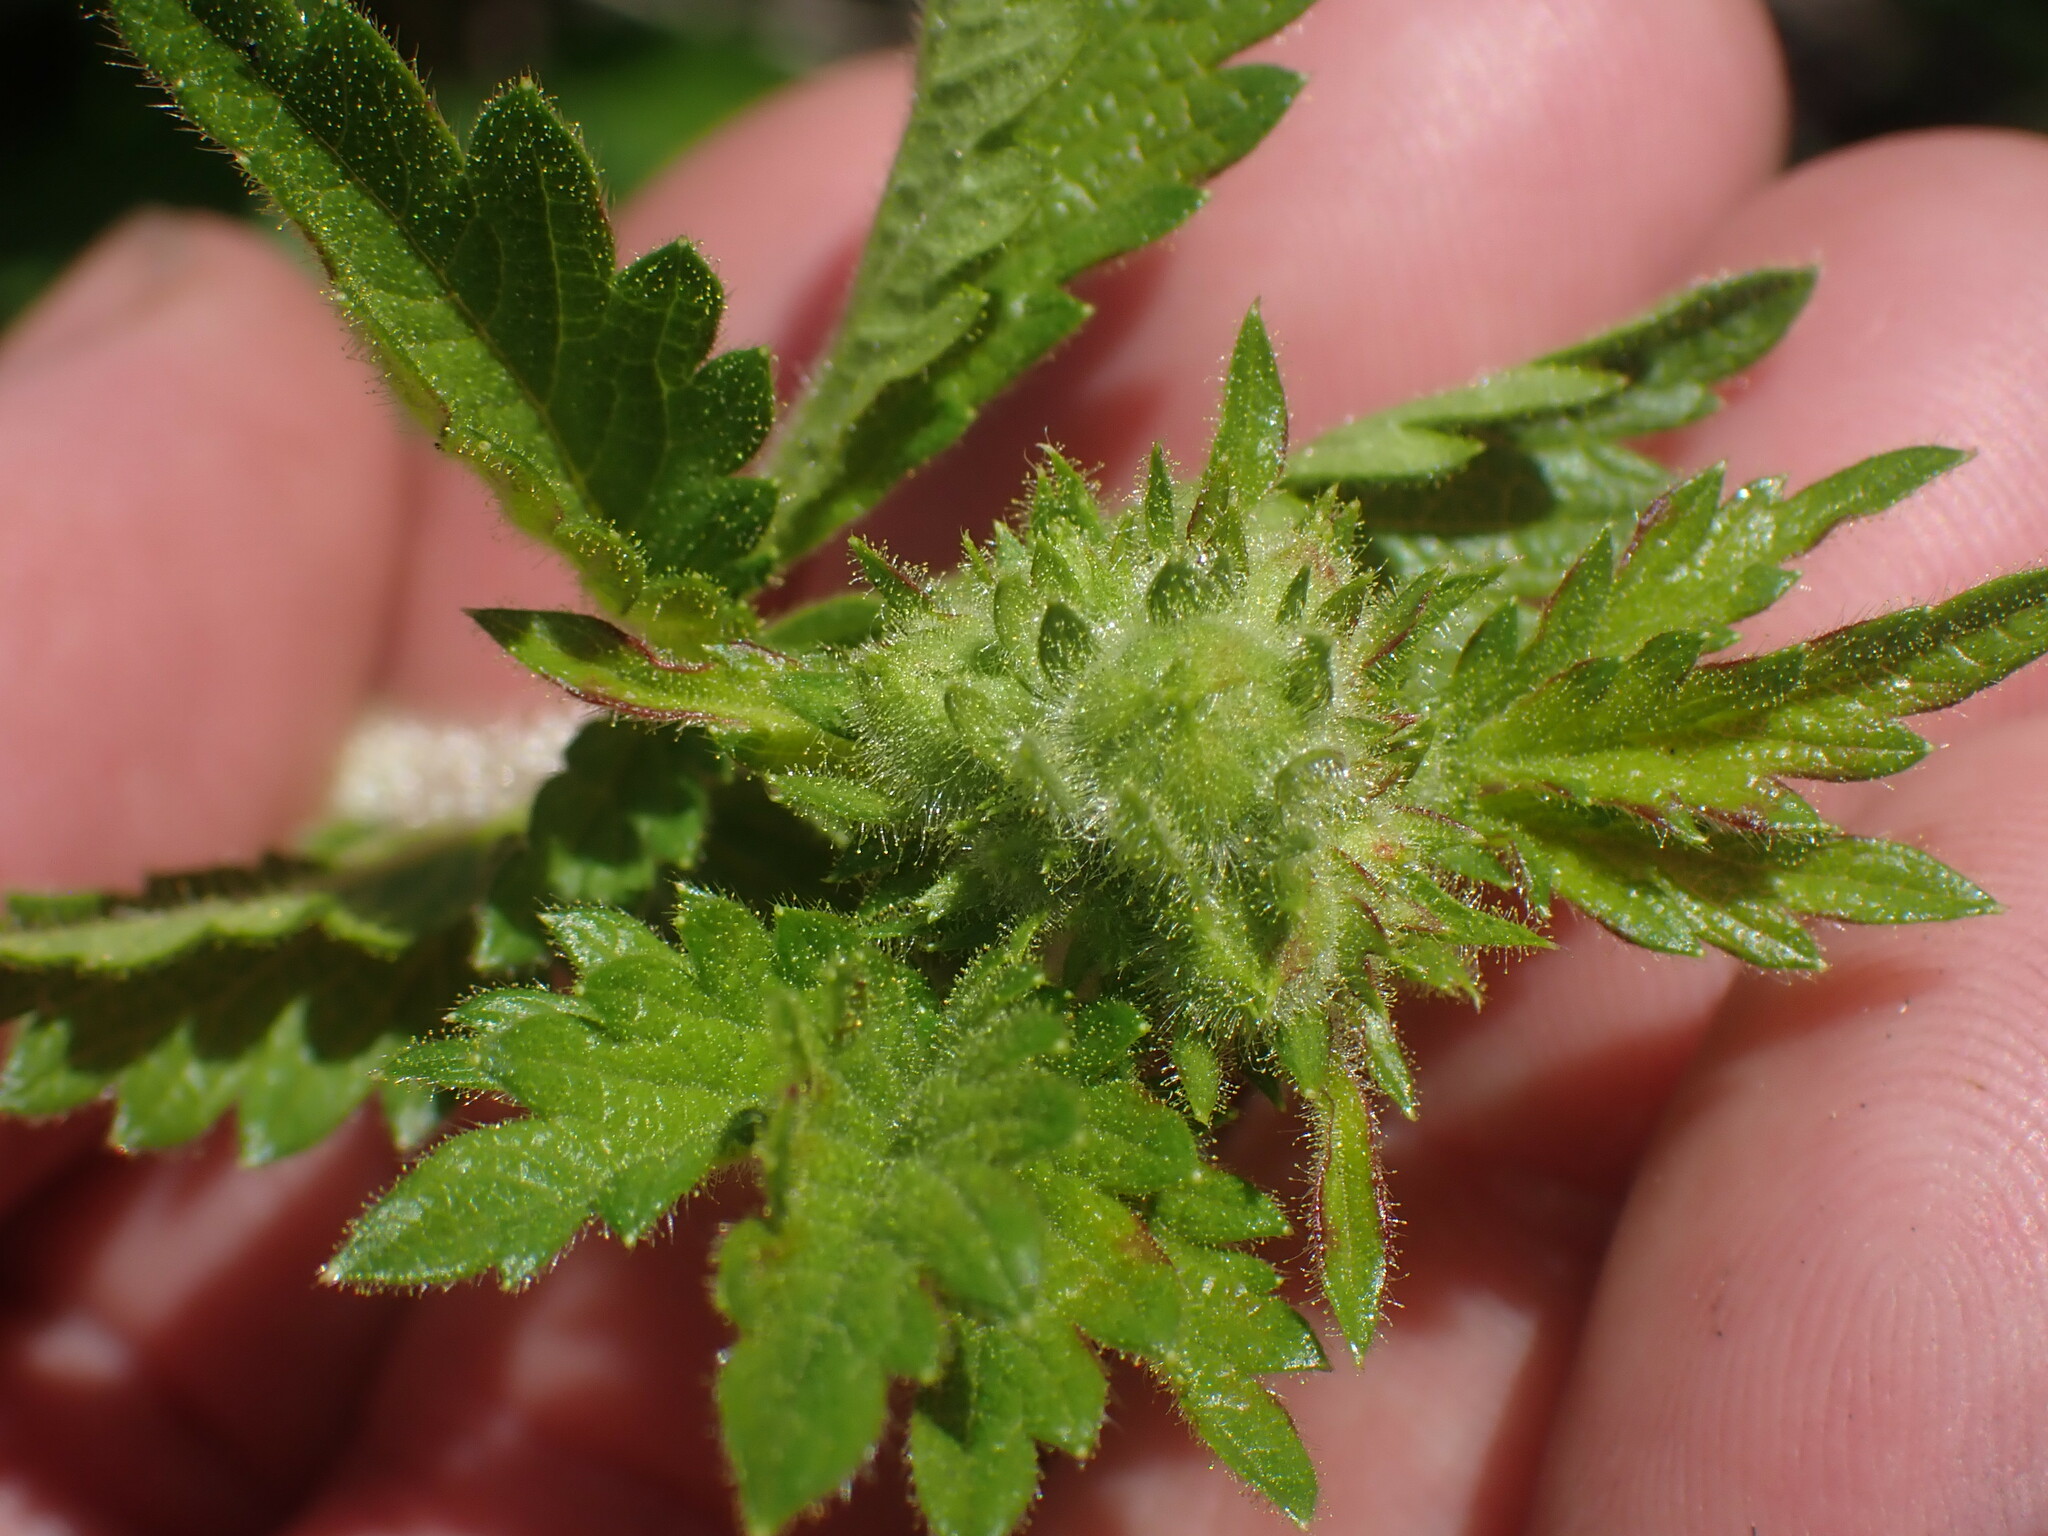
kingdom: Plantae
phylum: Tracheophyta
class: Magnoliopsida
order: Rosales
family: Rosaceae
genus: Drymocallis
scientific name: Drymocallis convallaria
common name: Cream cinquefoil
